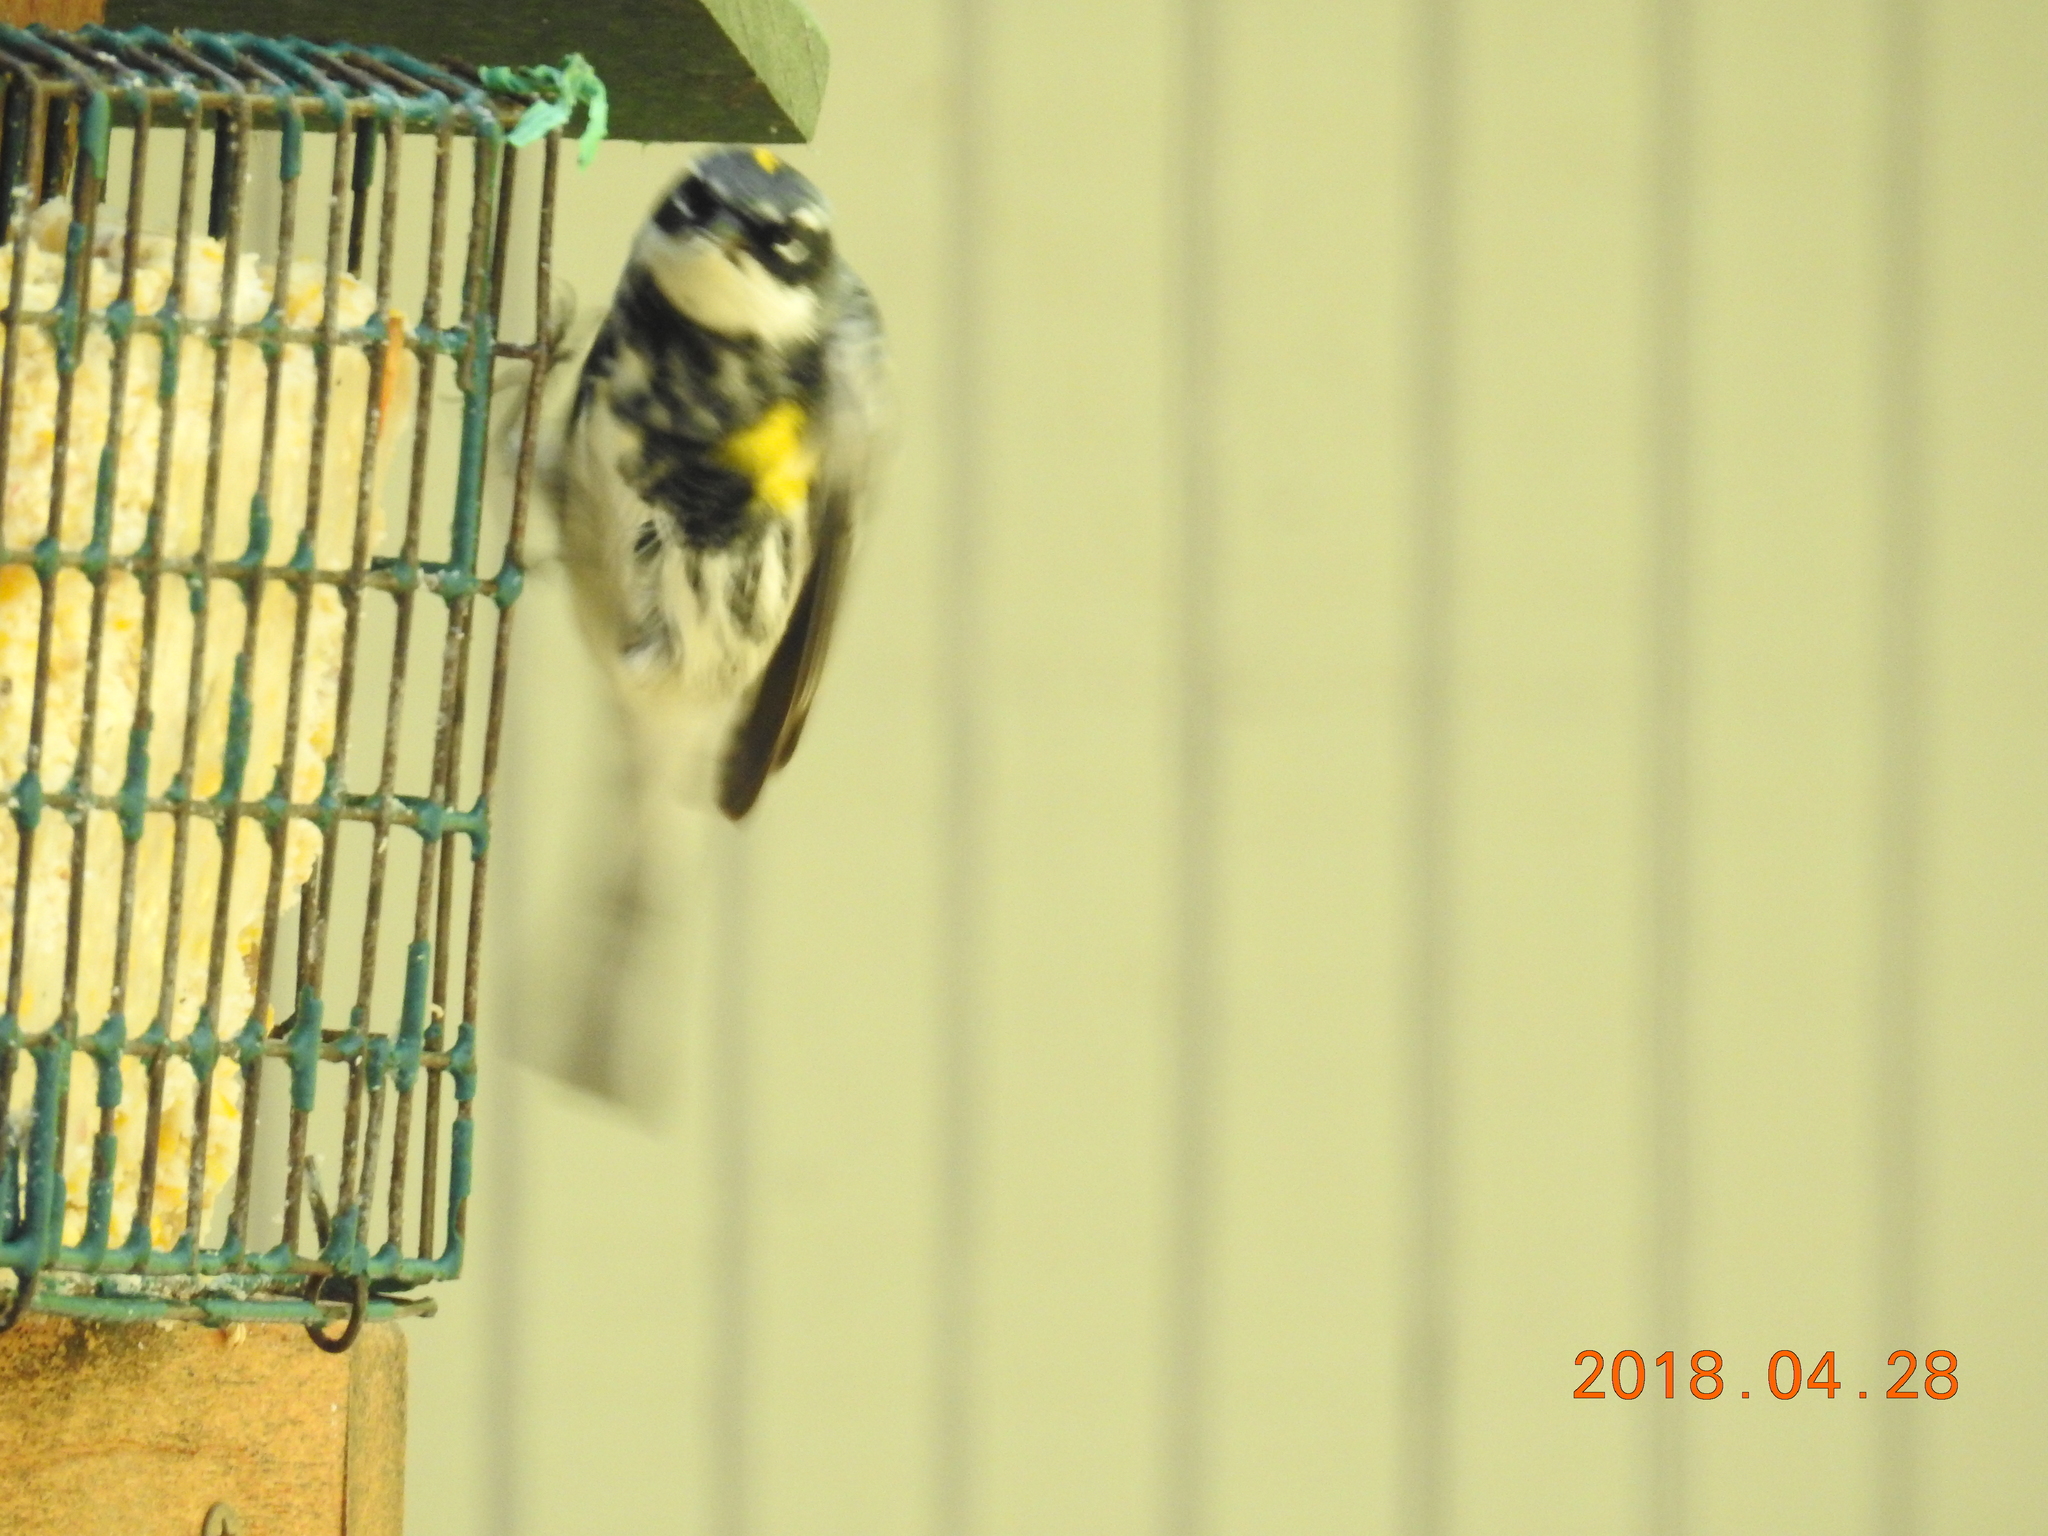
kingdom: Animalia
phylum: Chordata
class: Aves
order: Passeriformes
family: Parulidae
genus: Setophaga
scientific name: Setophaga coronata
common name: Myrtle warbler
